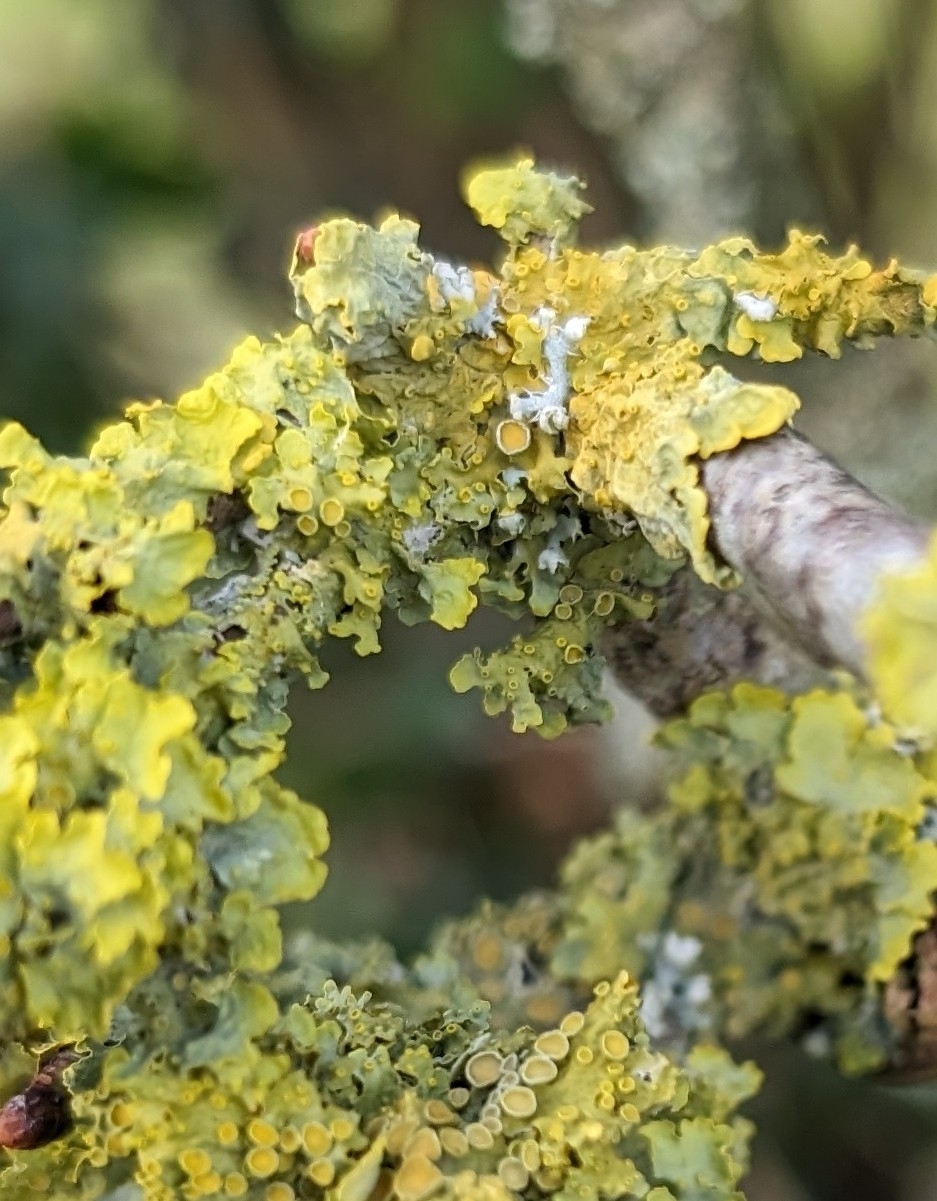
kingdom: Fungi
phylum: Ascomycota
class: Lecanoromycetes
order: Teloschistales
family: Teloschistaceae
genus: Xanthoria
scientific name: Xanthoria parietina
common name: Common orange lichen
